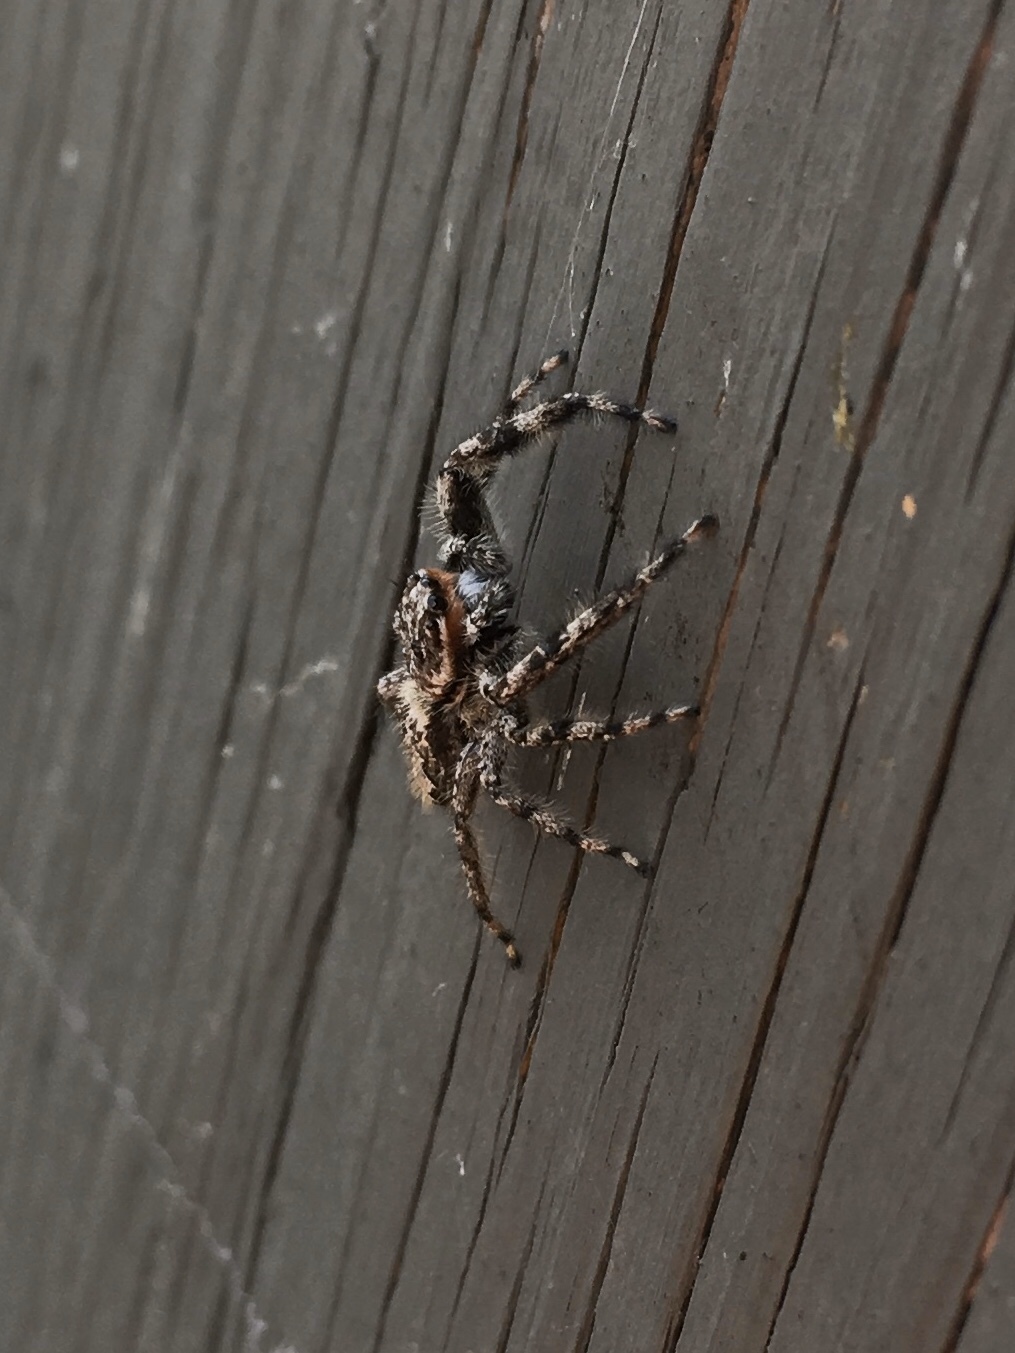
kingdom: Animalia
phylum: Arthropoda
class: Arachnida
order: Araneae
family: Salticidae
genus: Platycryptus
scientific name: Platycryptus undatus
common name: Tan jumping spider
